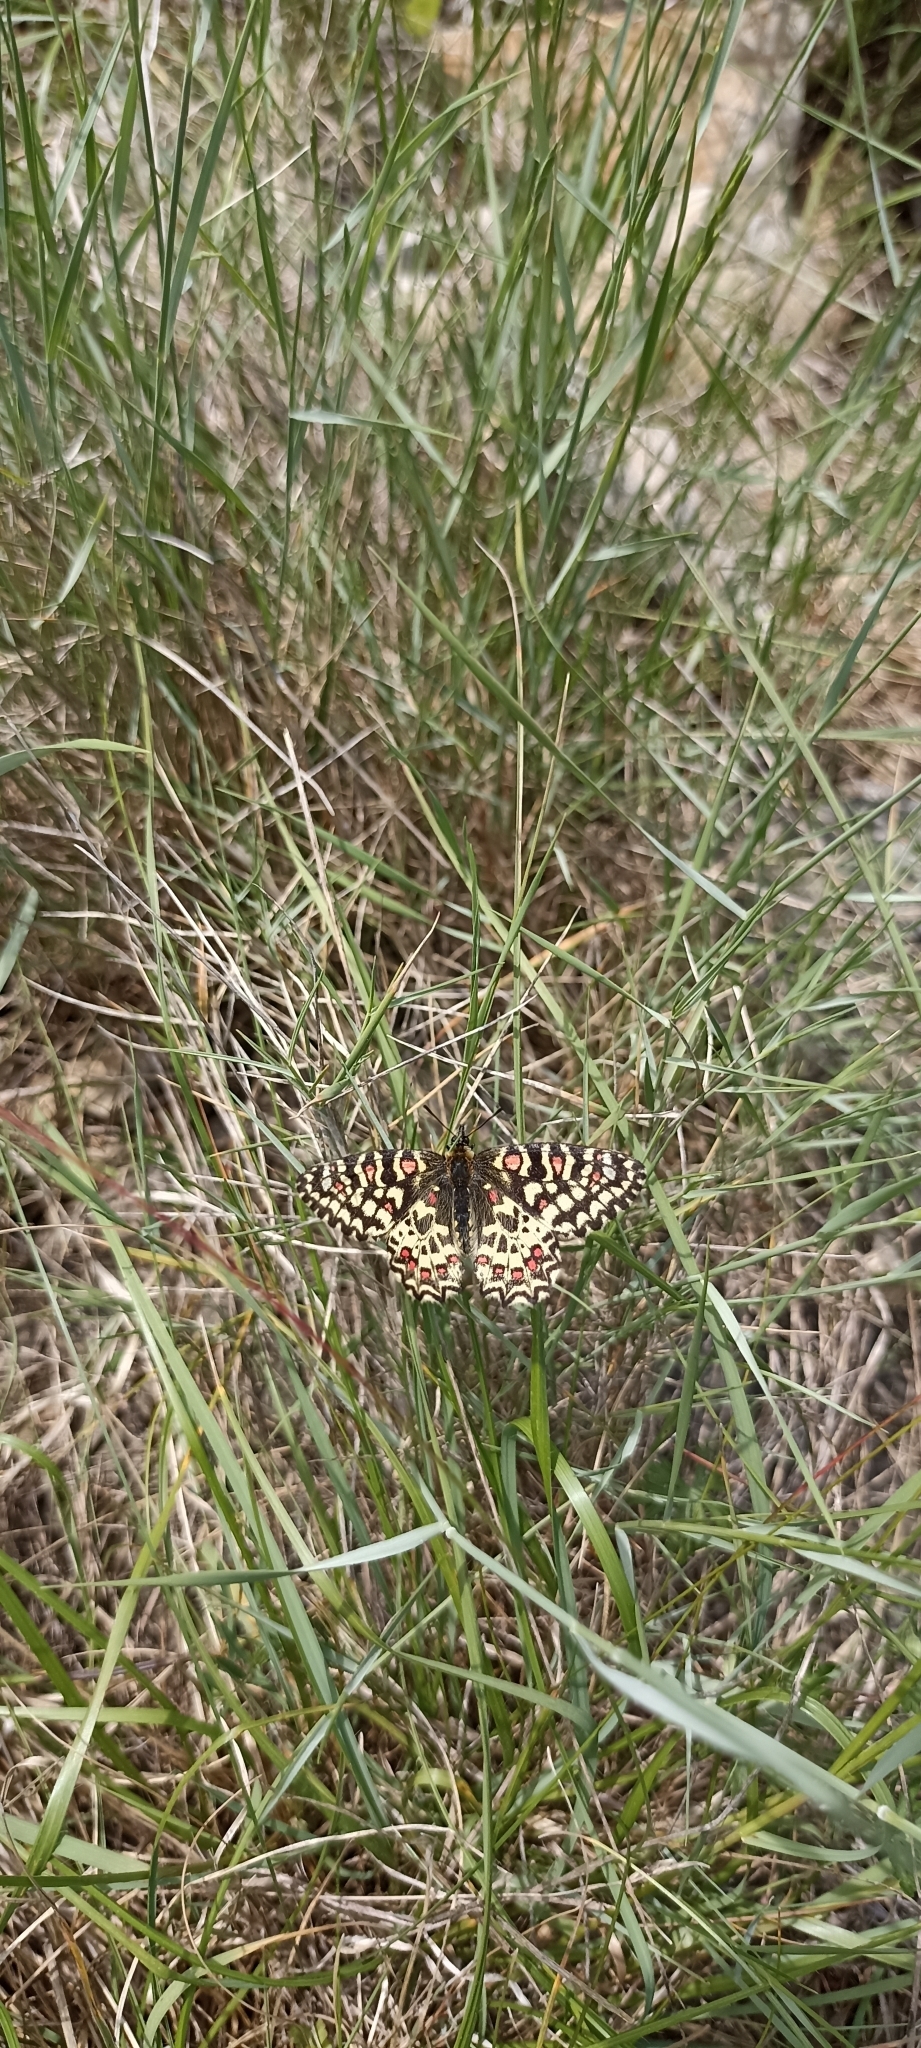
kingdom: Animalia
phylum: Arthropoda
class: Insecta
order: Lepidoptera
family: Papilionidae
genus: Zerynthia
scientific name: Zerynthia rumina
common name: Spanish festoon
